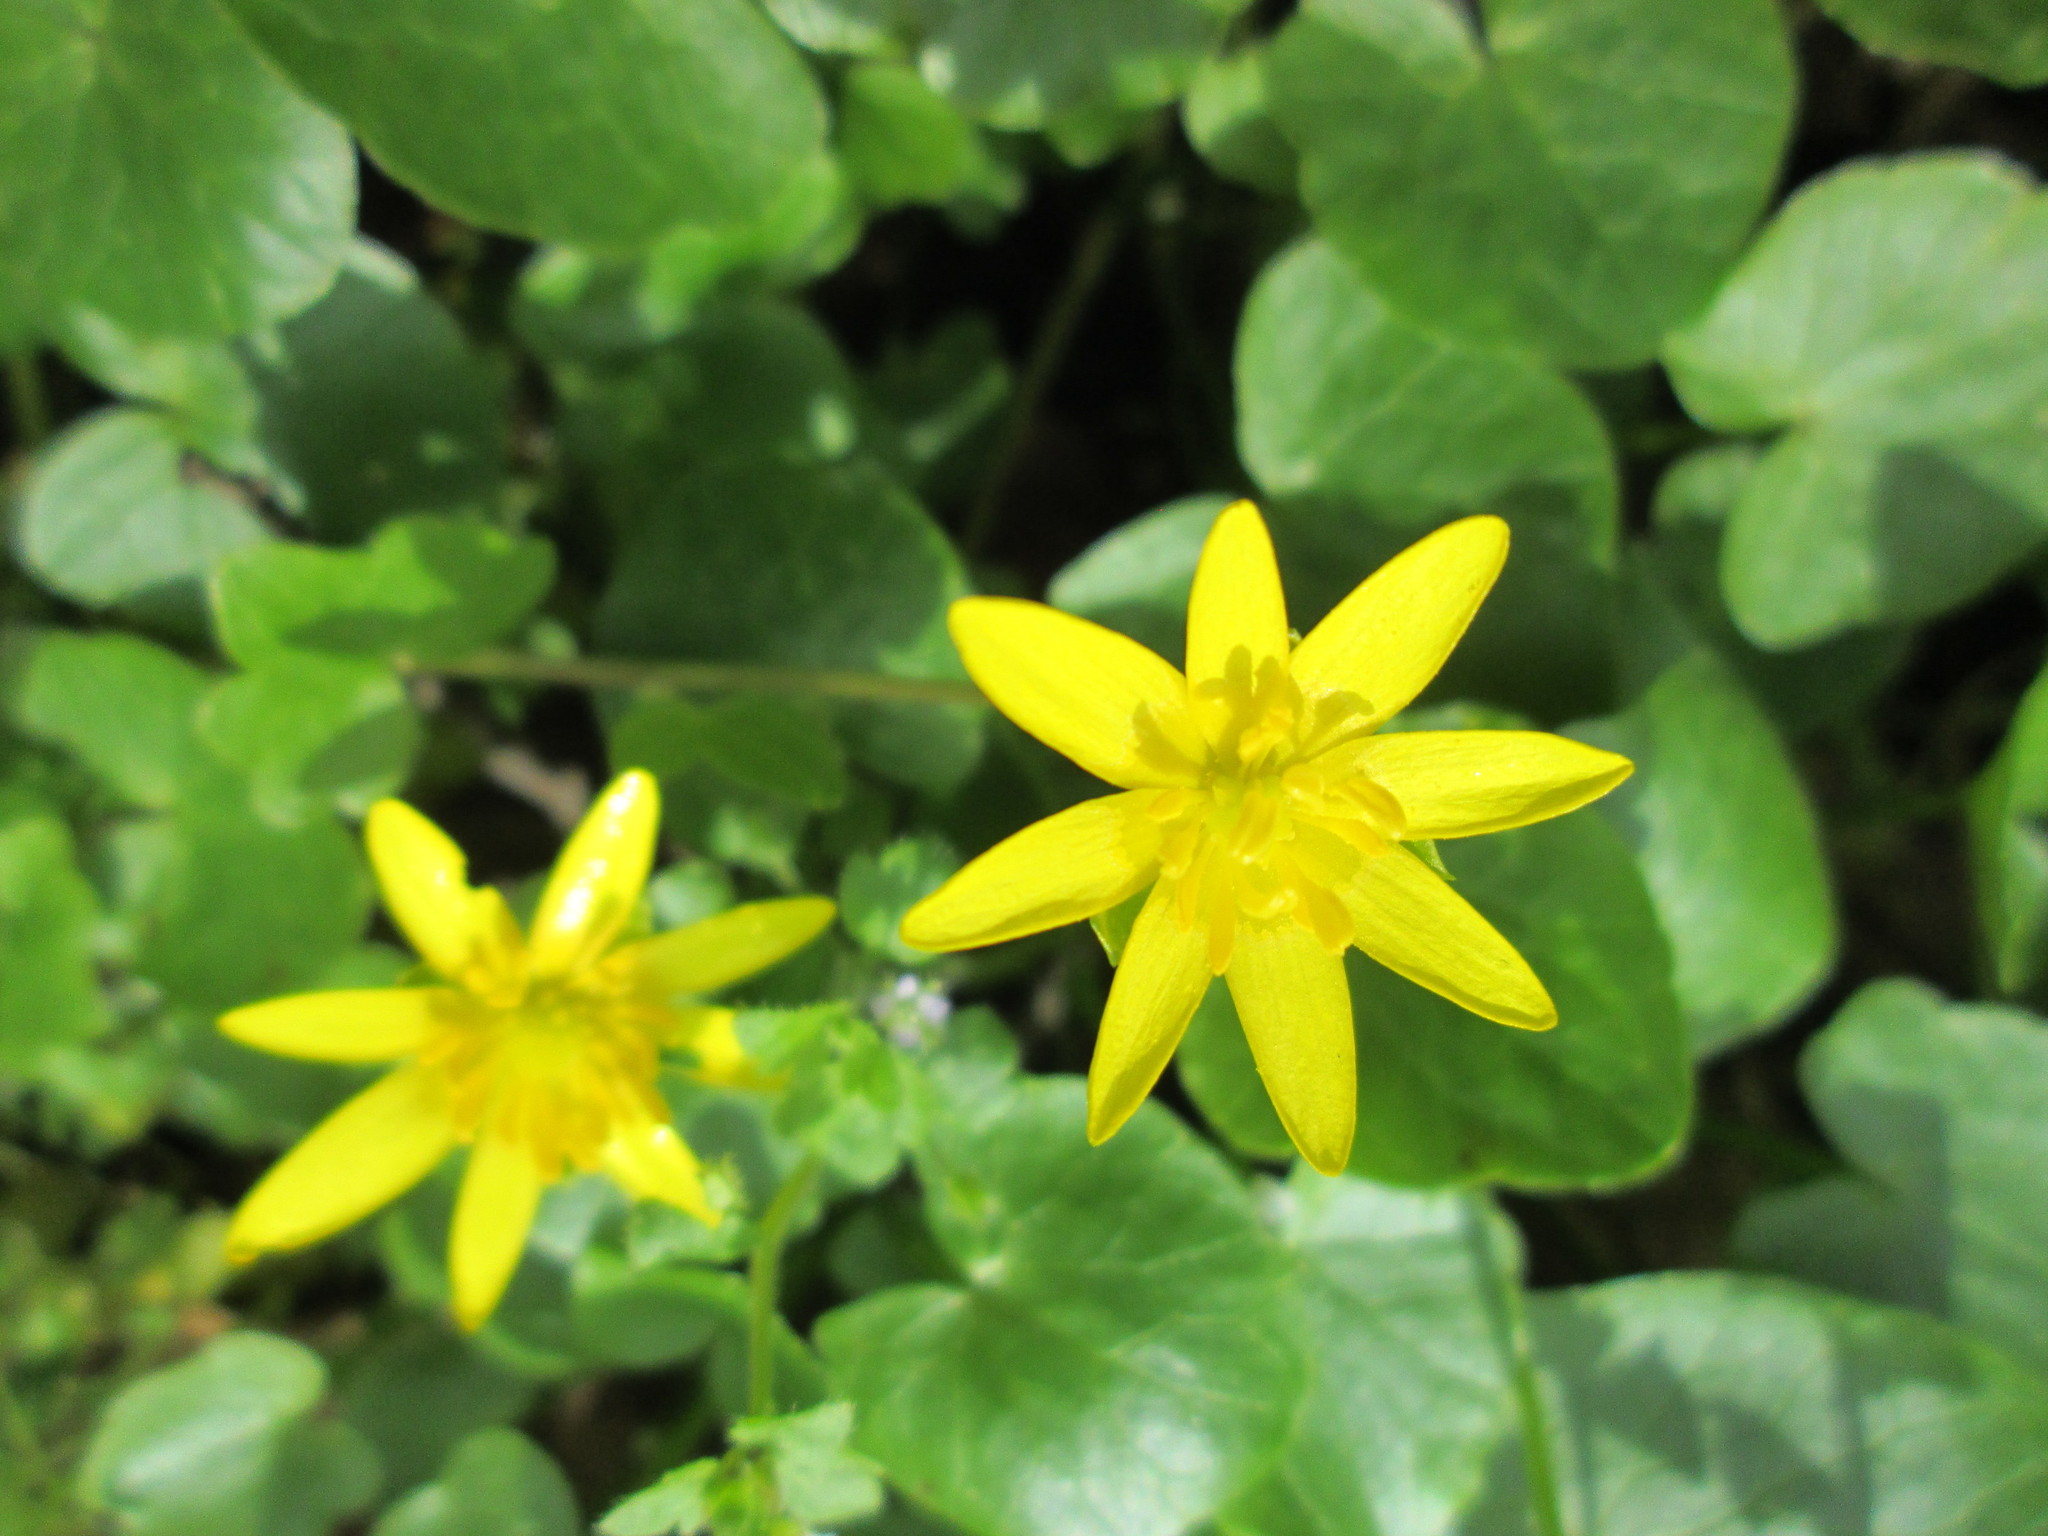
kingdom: Plantae
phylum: Tracheophyta
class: Magnoliopsida
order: Ranunculales
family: Ranunculaceae
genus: Ficaria
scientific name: Ficaria verna
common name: Lesser celandine
